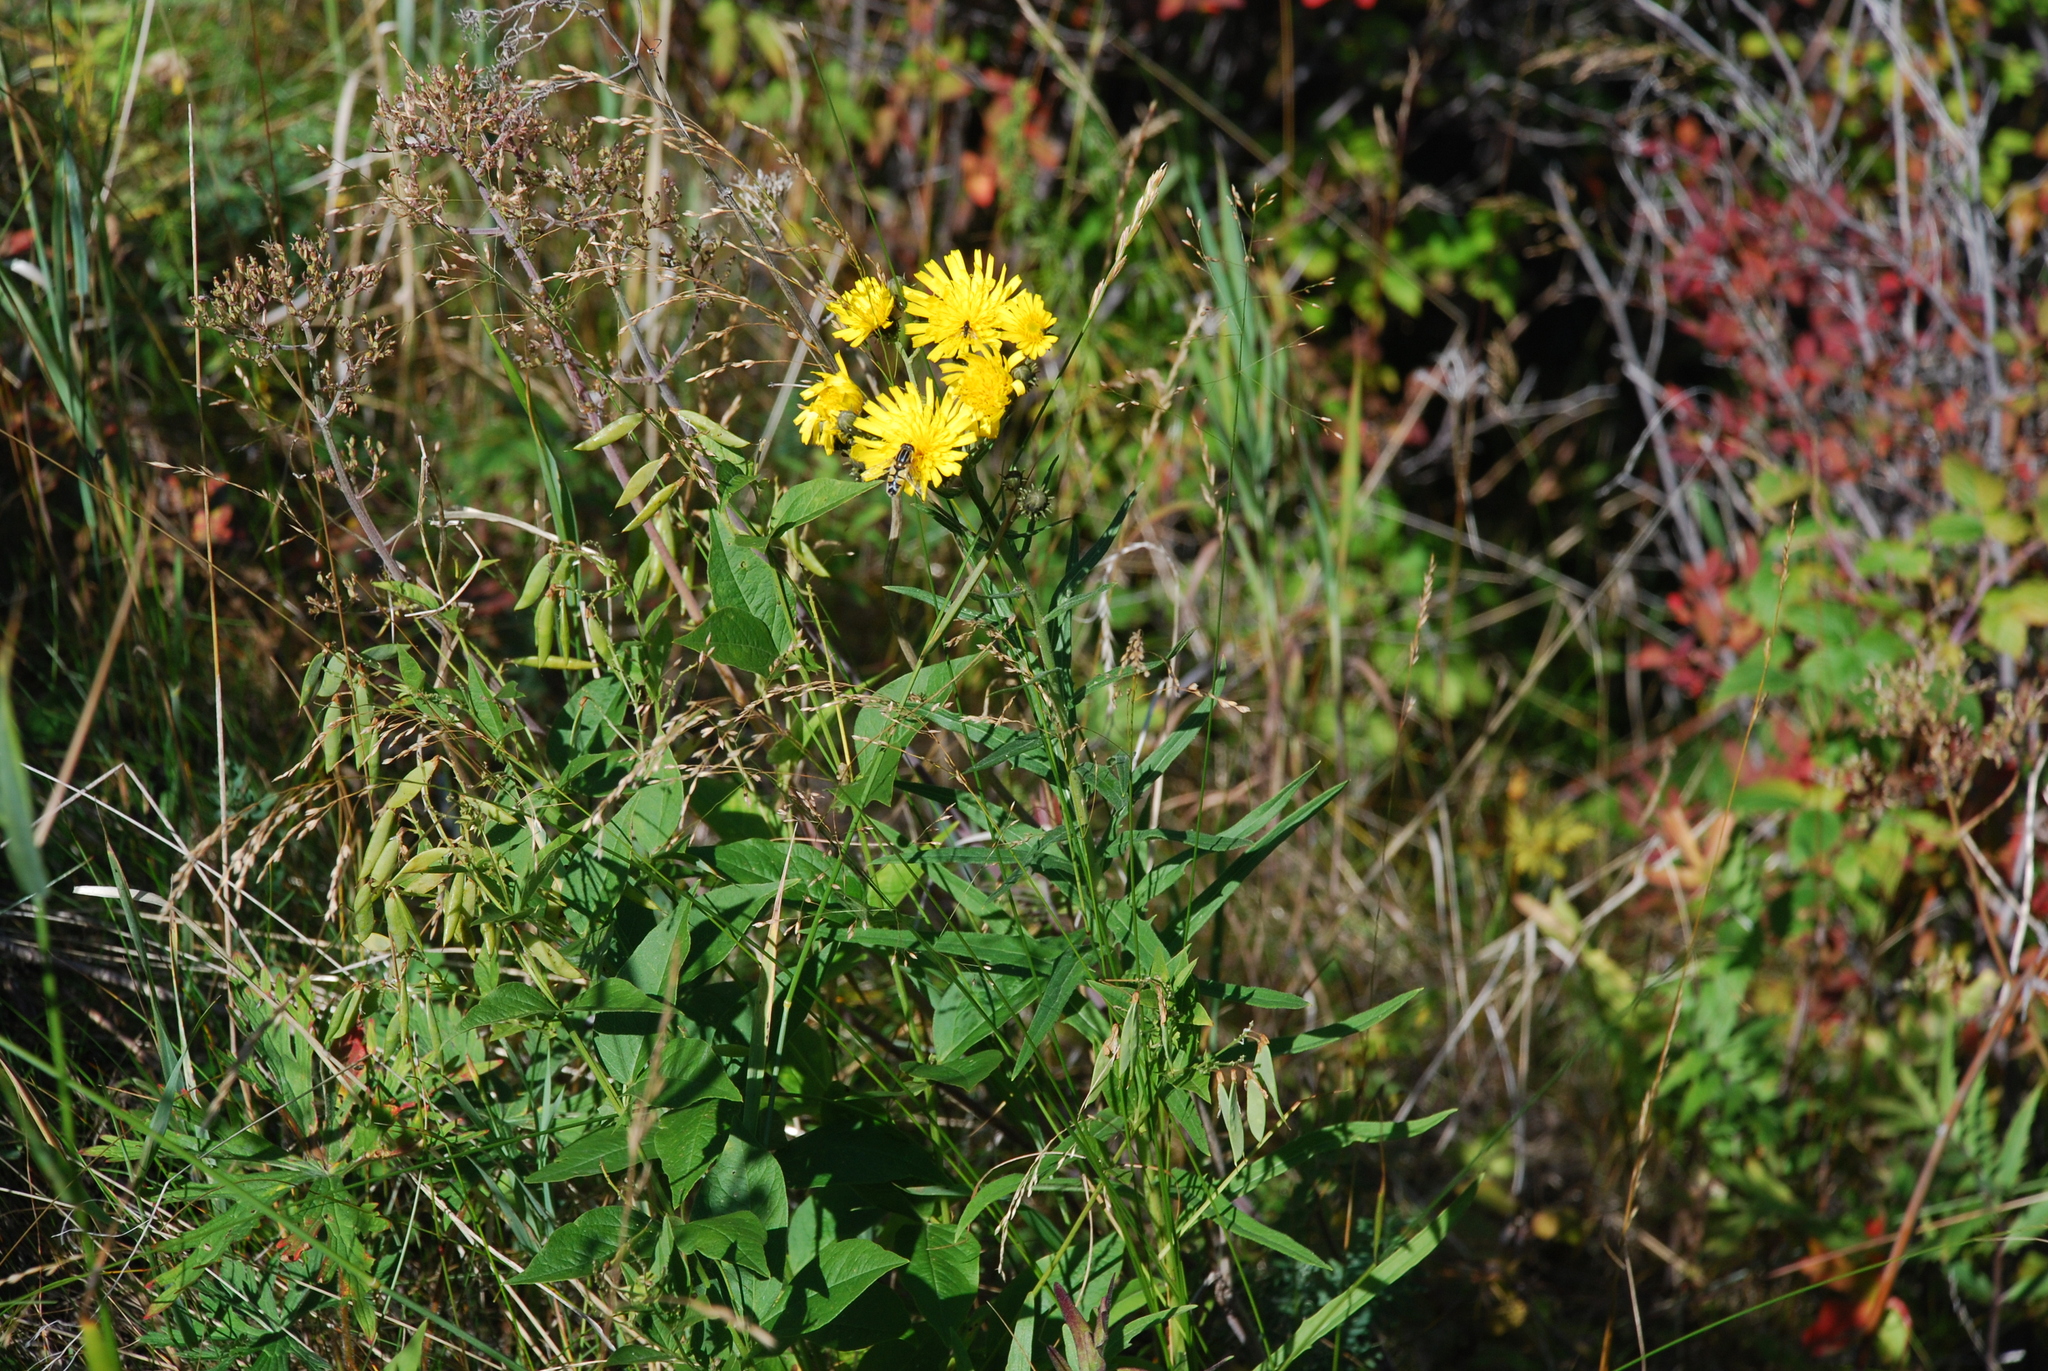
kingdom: Plantae
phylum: Tracheophyta
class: Magnoliopsida
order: Asterales
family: Asteraceae
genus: Hieracium
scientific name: Hieracium umbellatum
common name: Northern hawkweed
